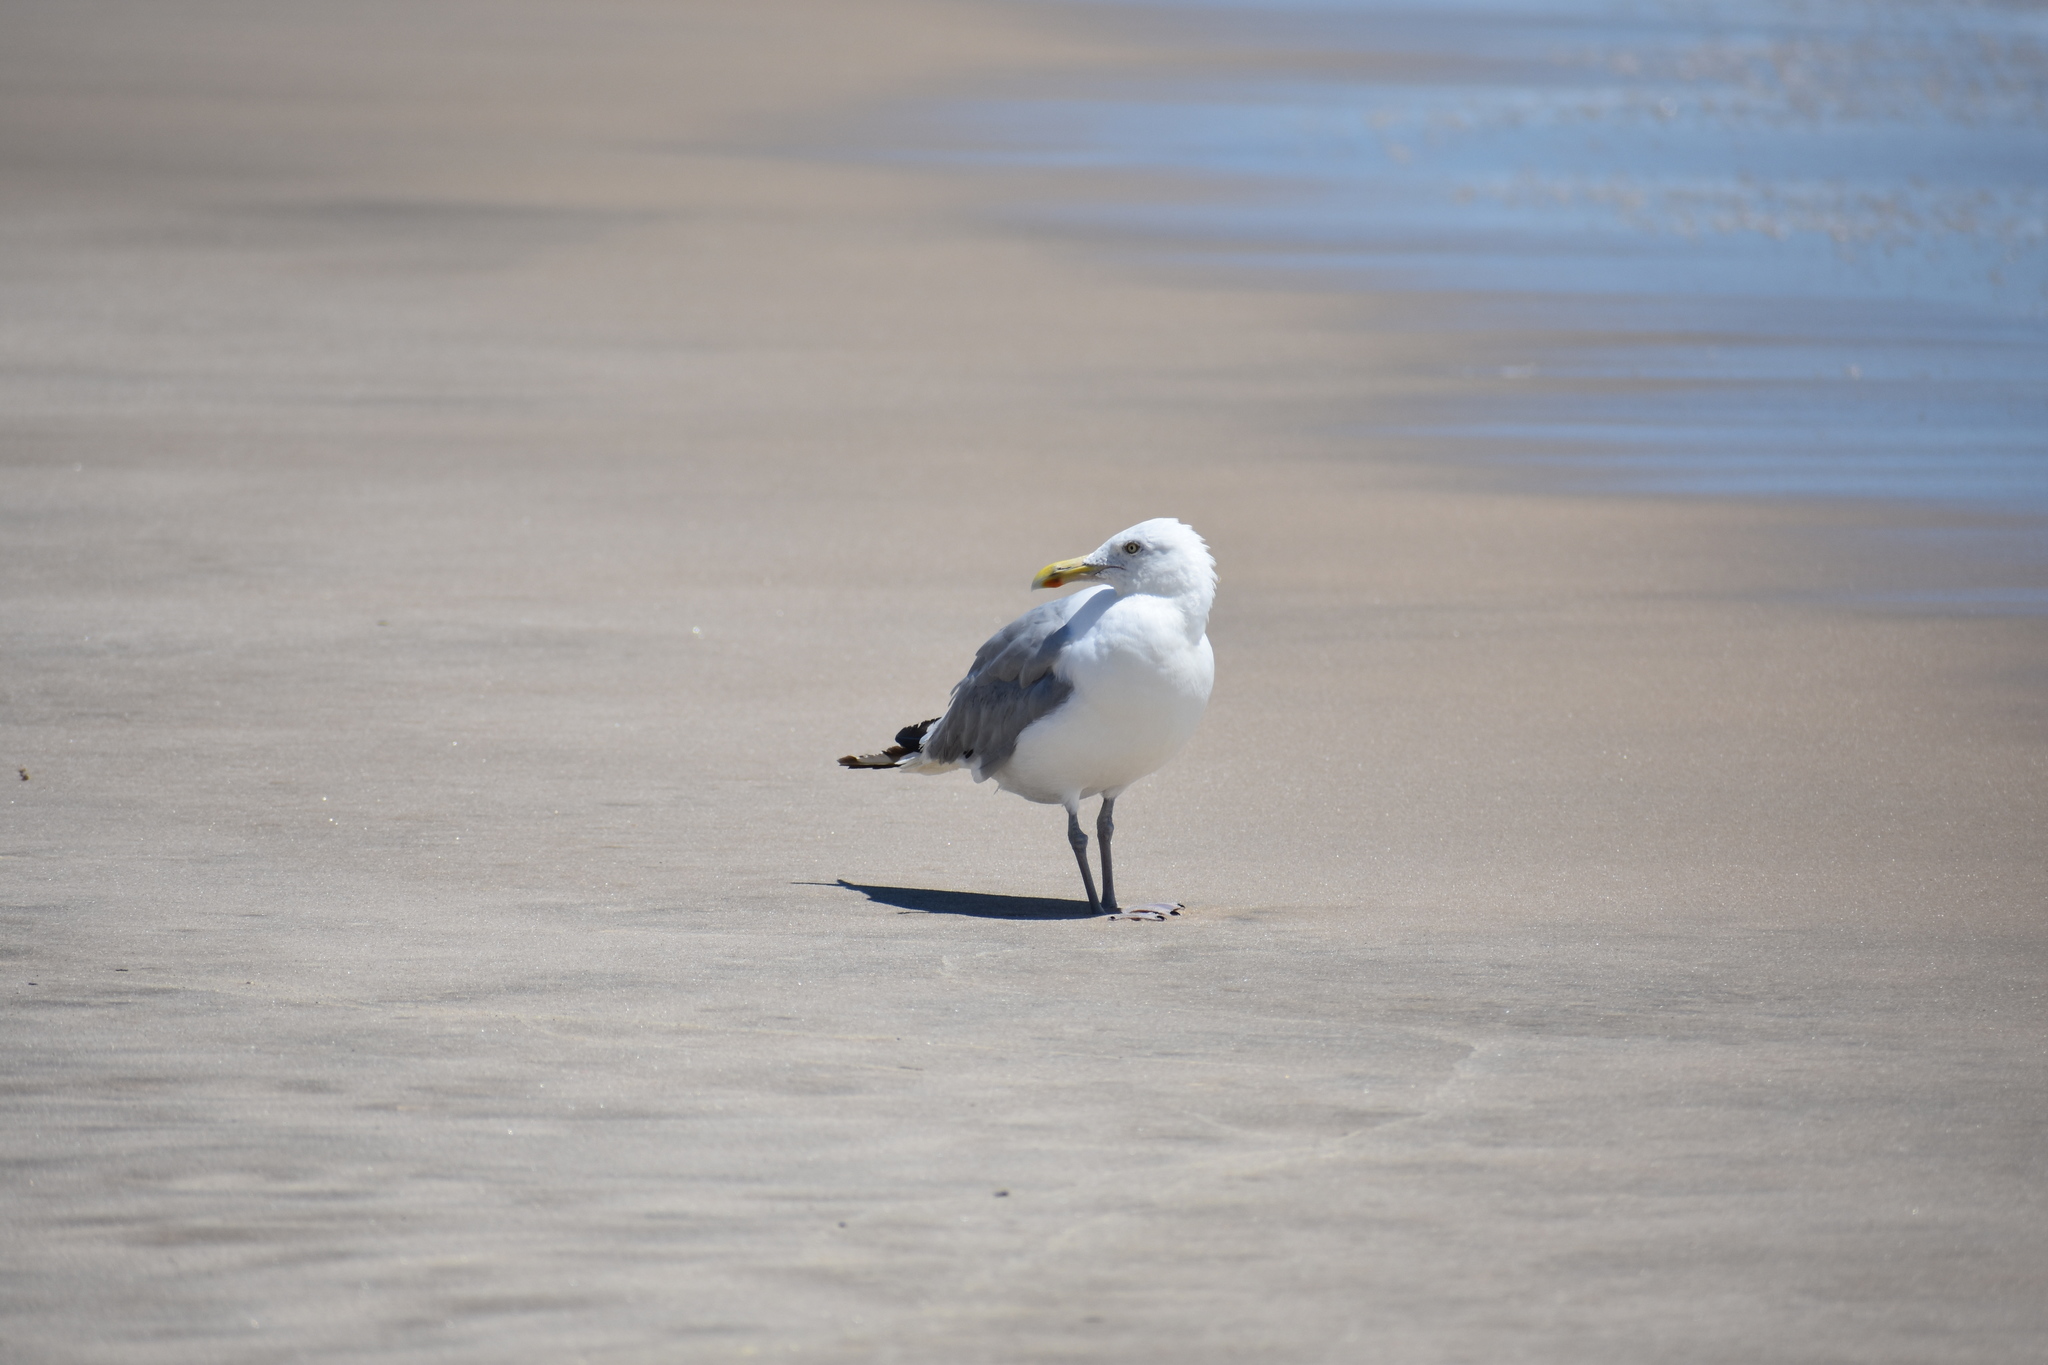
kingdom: Animalia
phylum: Chordata
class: Aves
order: Charadriiformes
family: Laridae
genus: Larus
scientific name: Larus argentatus
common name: Herring gull
